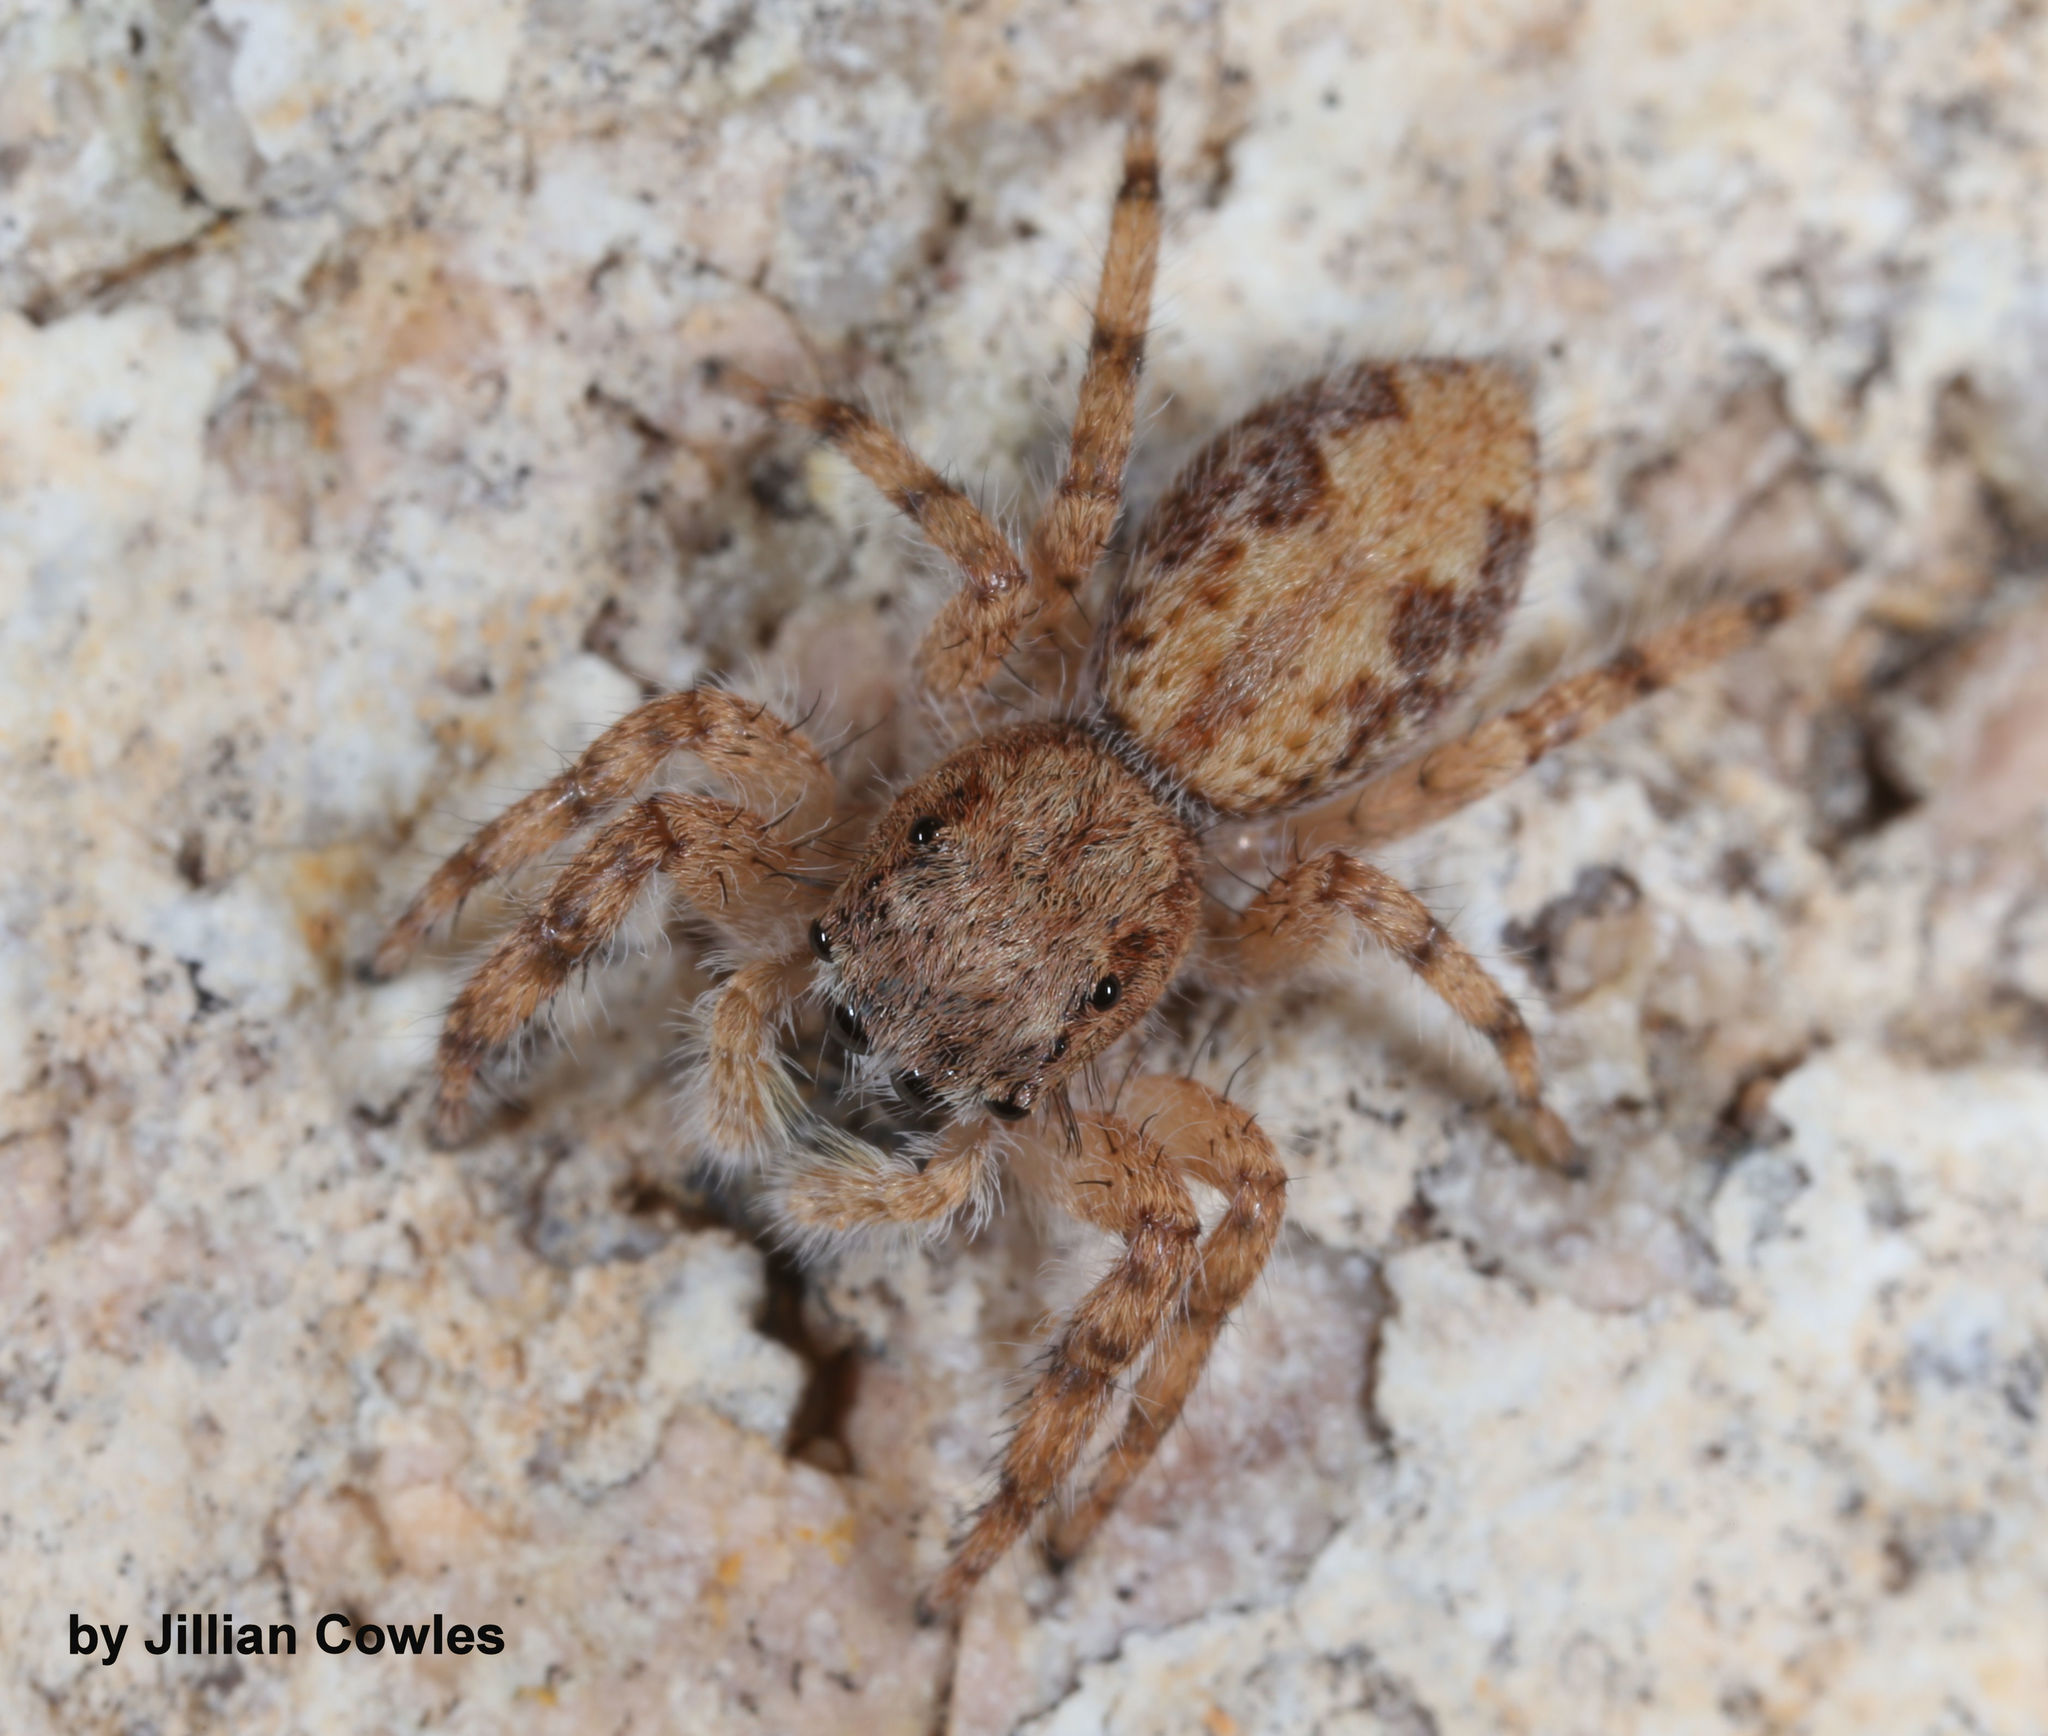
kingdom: Animalia
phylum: Arthropoda
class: Arachnida
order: Araneae
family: Salticidae
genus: Platycryptus
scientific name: Platycryptus arizonensis
